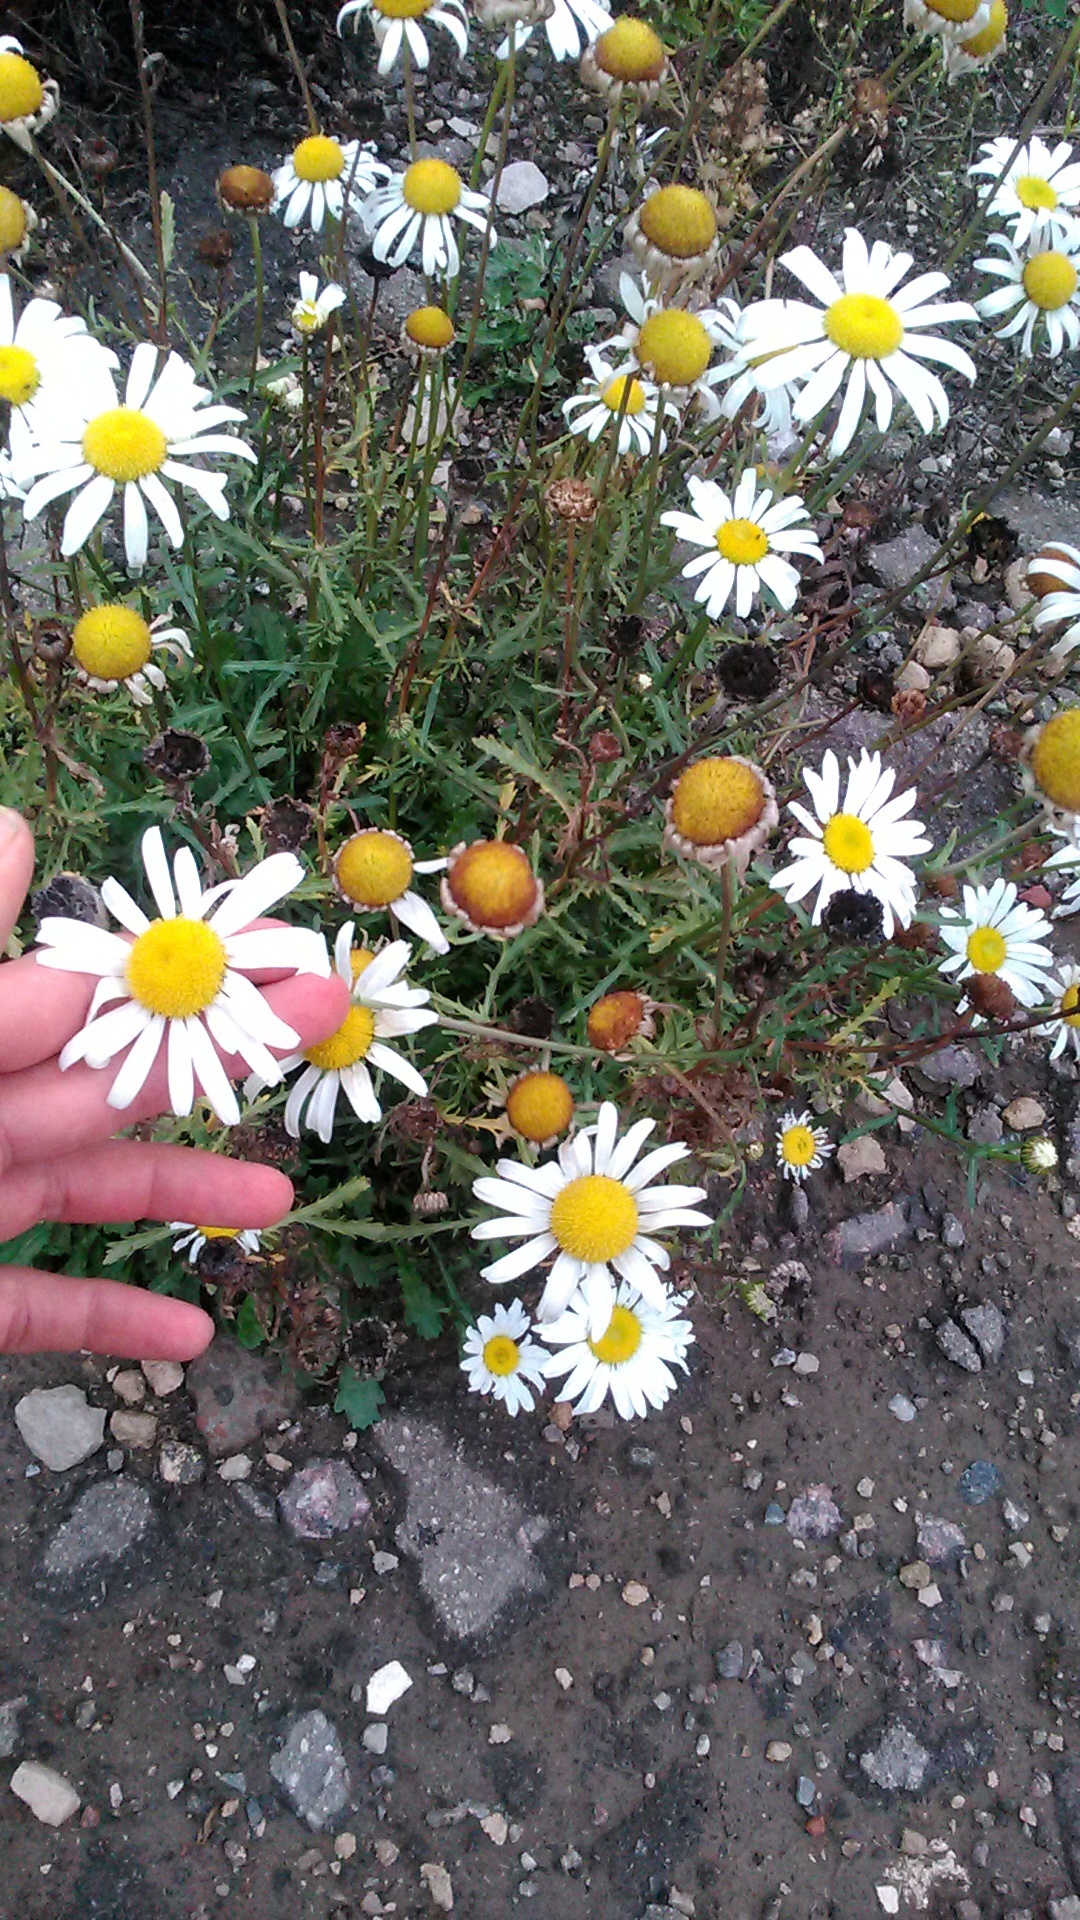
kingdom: Plantae
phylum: Tracheophyta
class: Magnoliopsida
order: Asterales
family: Asteraceae
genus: Leucanthemum
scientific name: Leucanthemum vulgare
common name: Oxeye daisy
